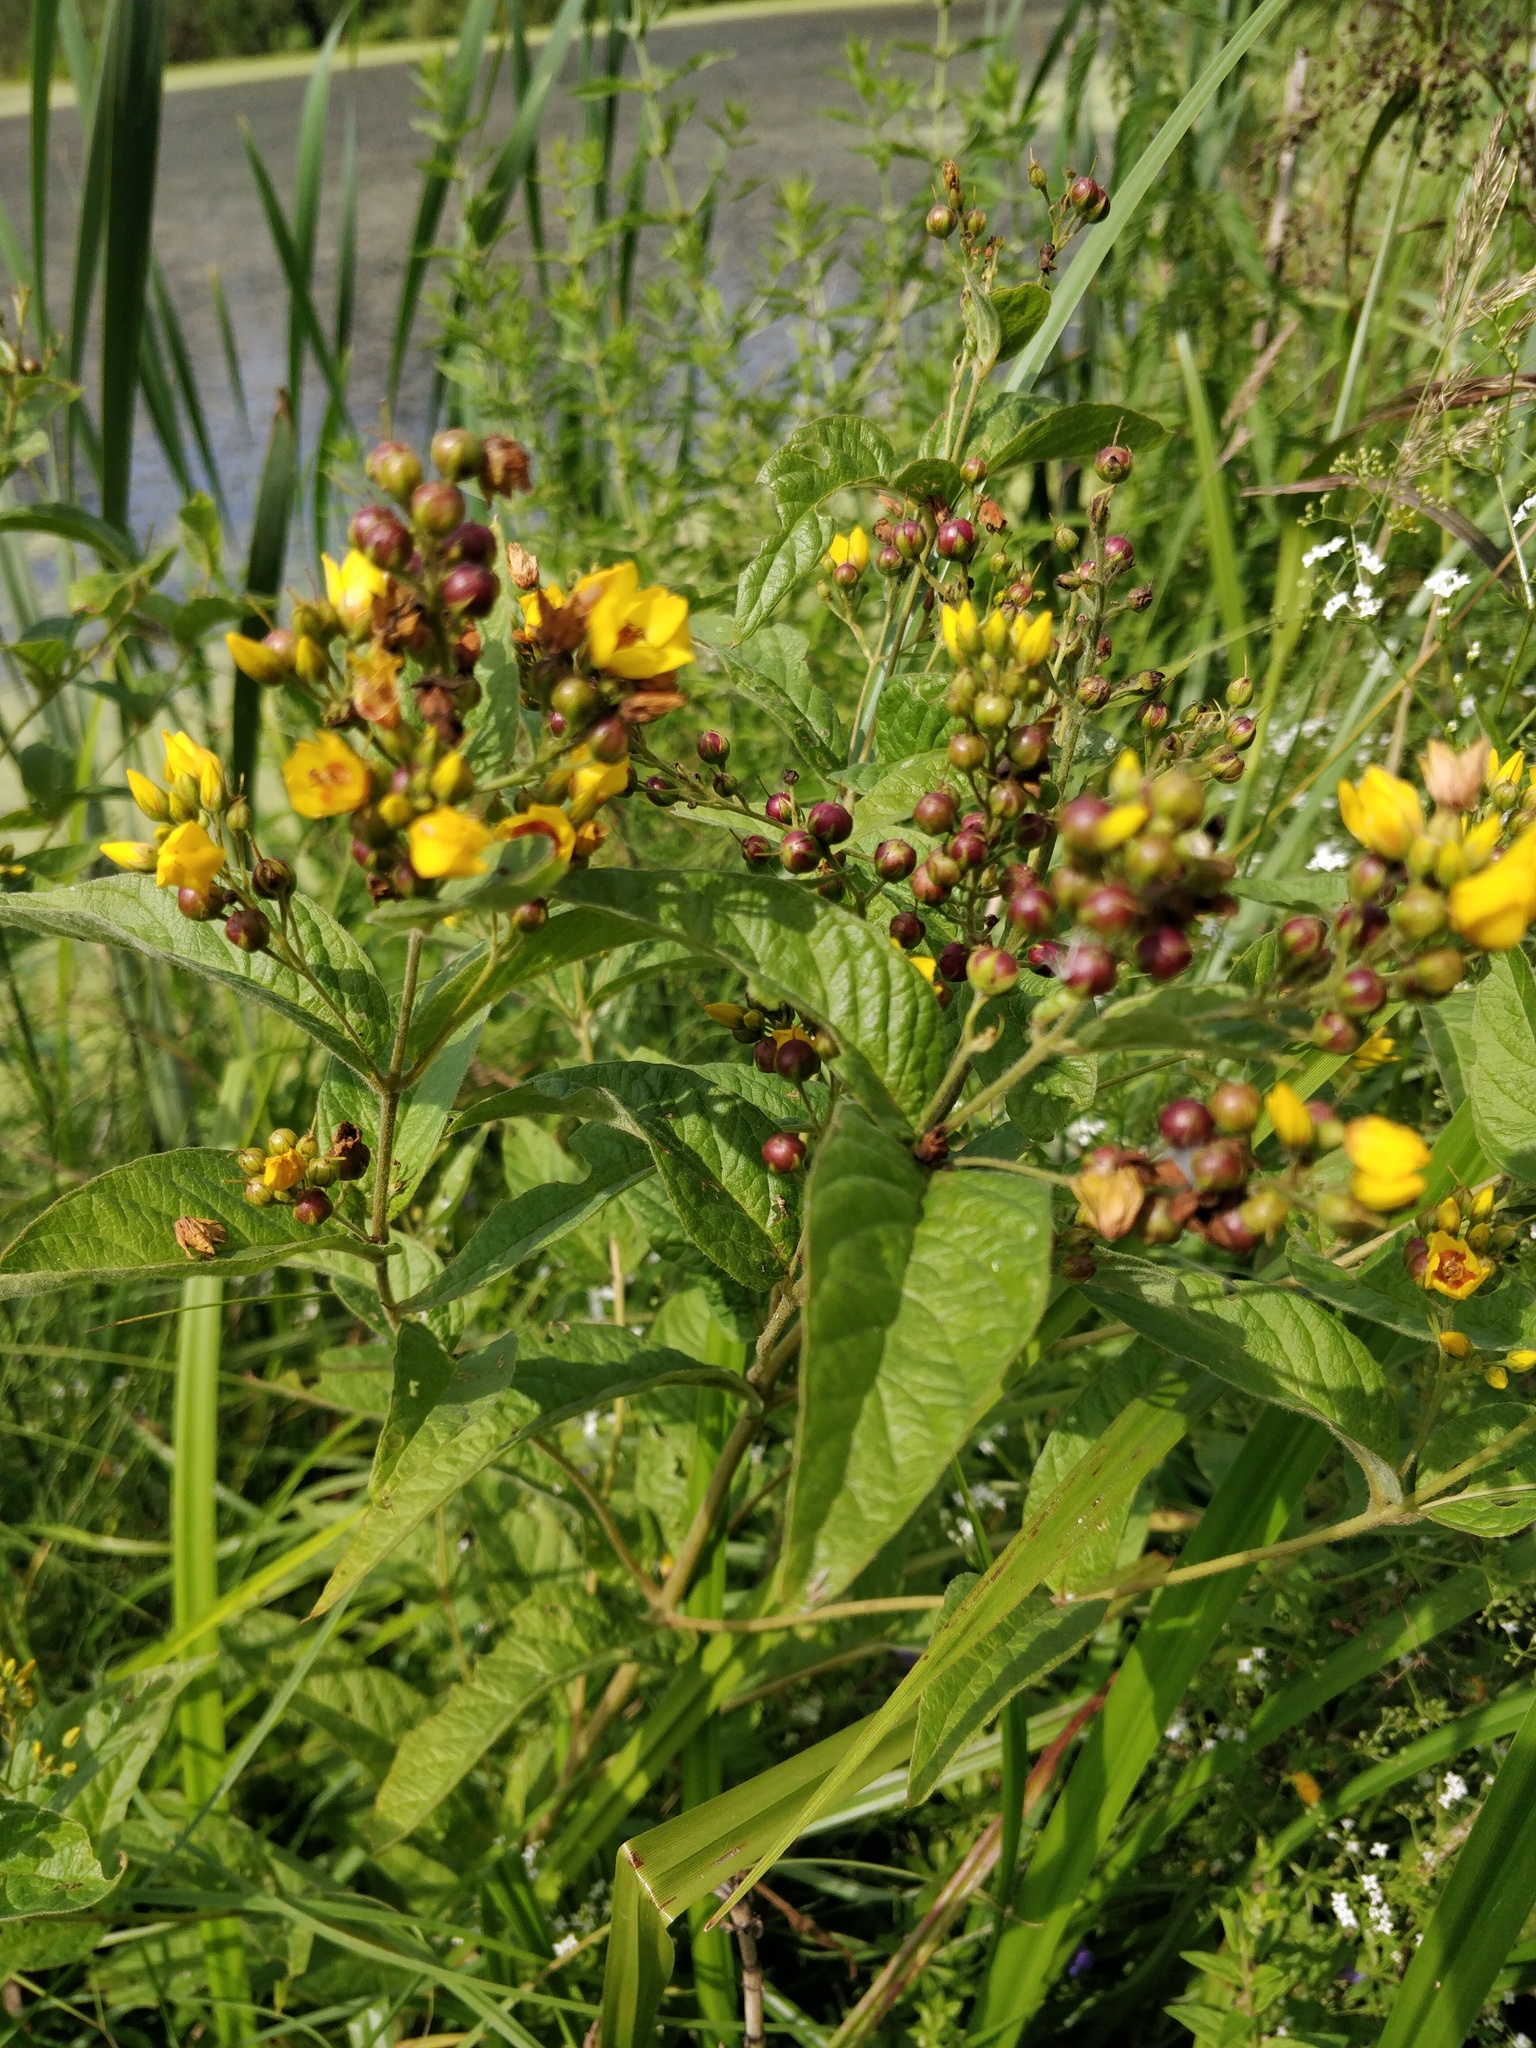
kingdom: Plantae
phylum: Tracheophyta
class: Magnoliopsida
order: Ericales
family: Primulaceae
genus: Lysimachia
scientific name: Lysimachia vulgaris
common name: Yellow loosestrife
